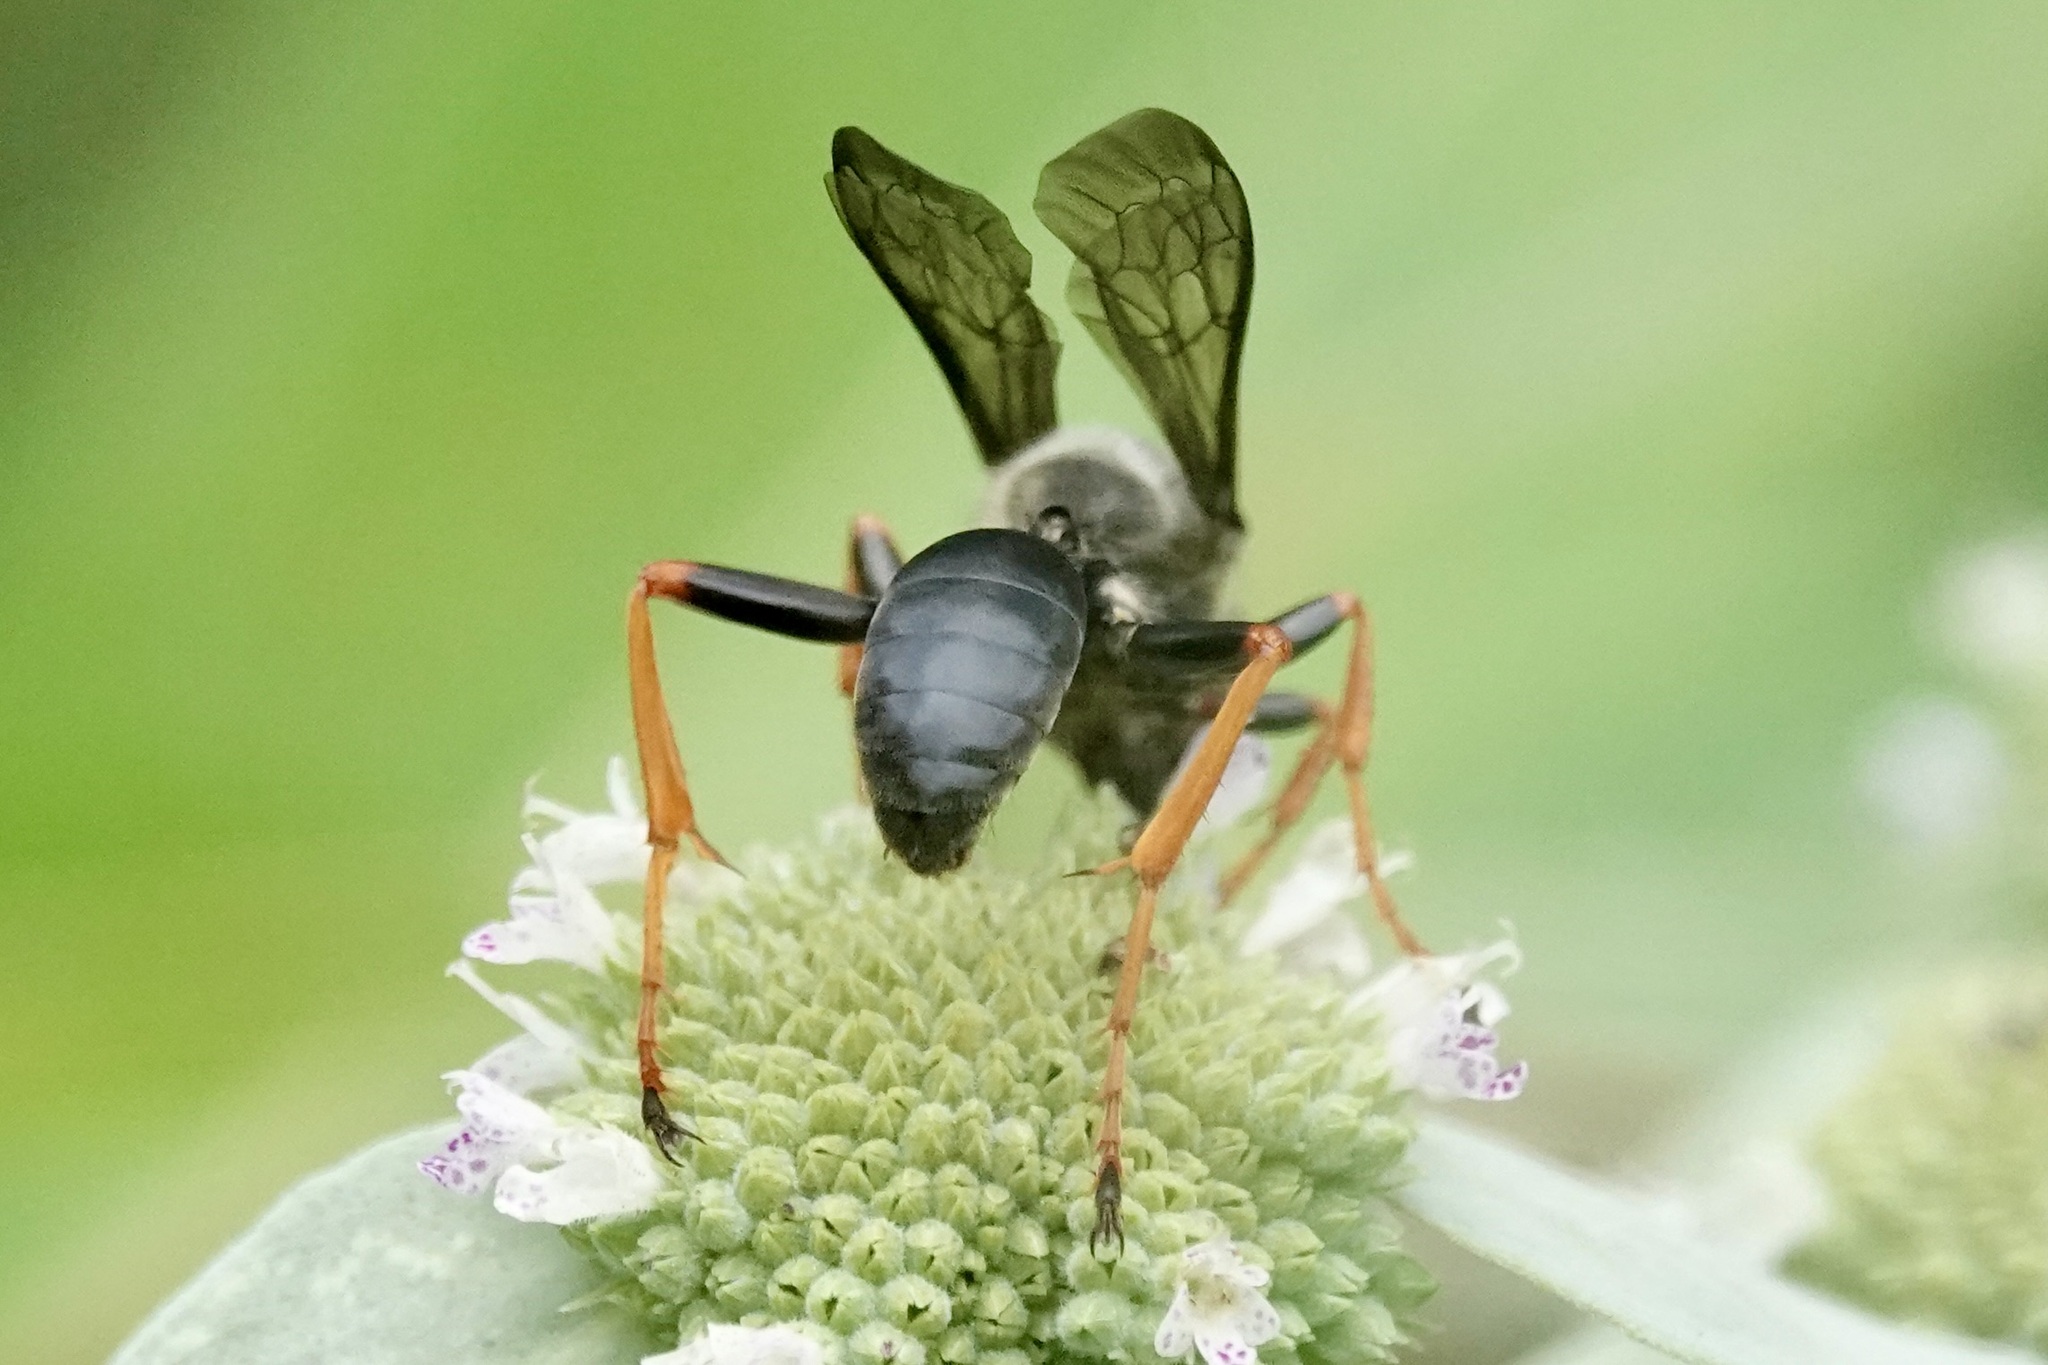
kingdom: Animalia
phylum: Arthropoda
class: Insecta
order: Hymenoptera
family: Sphecidae
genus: Sphex
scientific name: Sphex nudus
